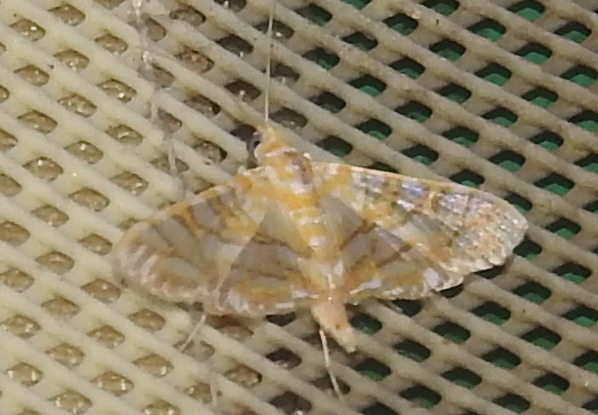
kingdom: Animalia
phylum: Arthropoda
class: Insecta
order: Lepidoptera
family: Crambidae
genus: Synclera
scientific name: Synclera traducalis
